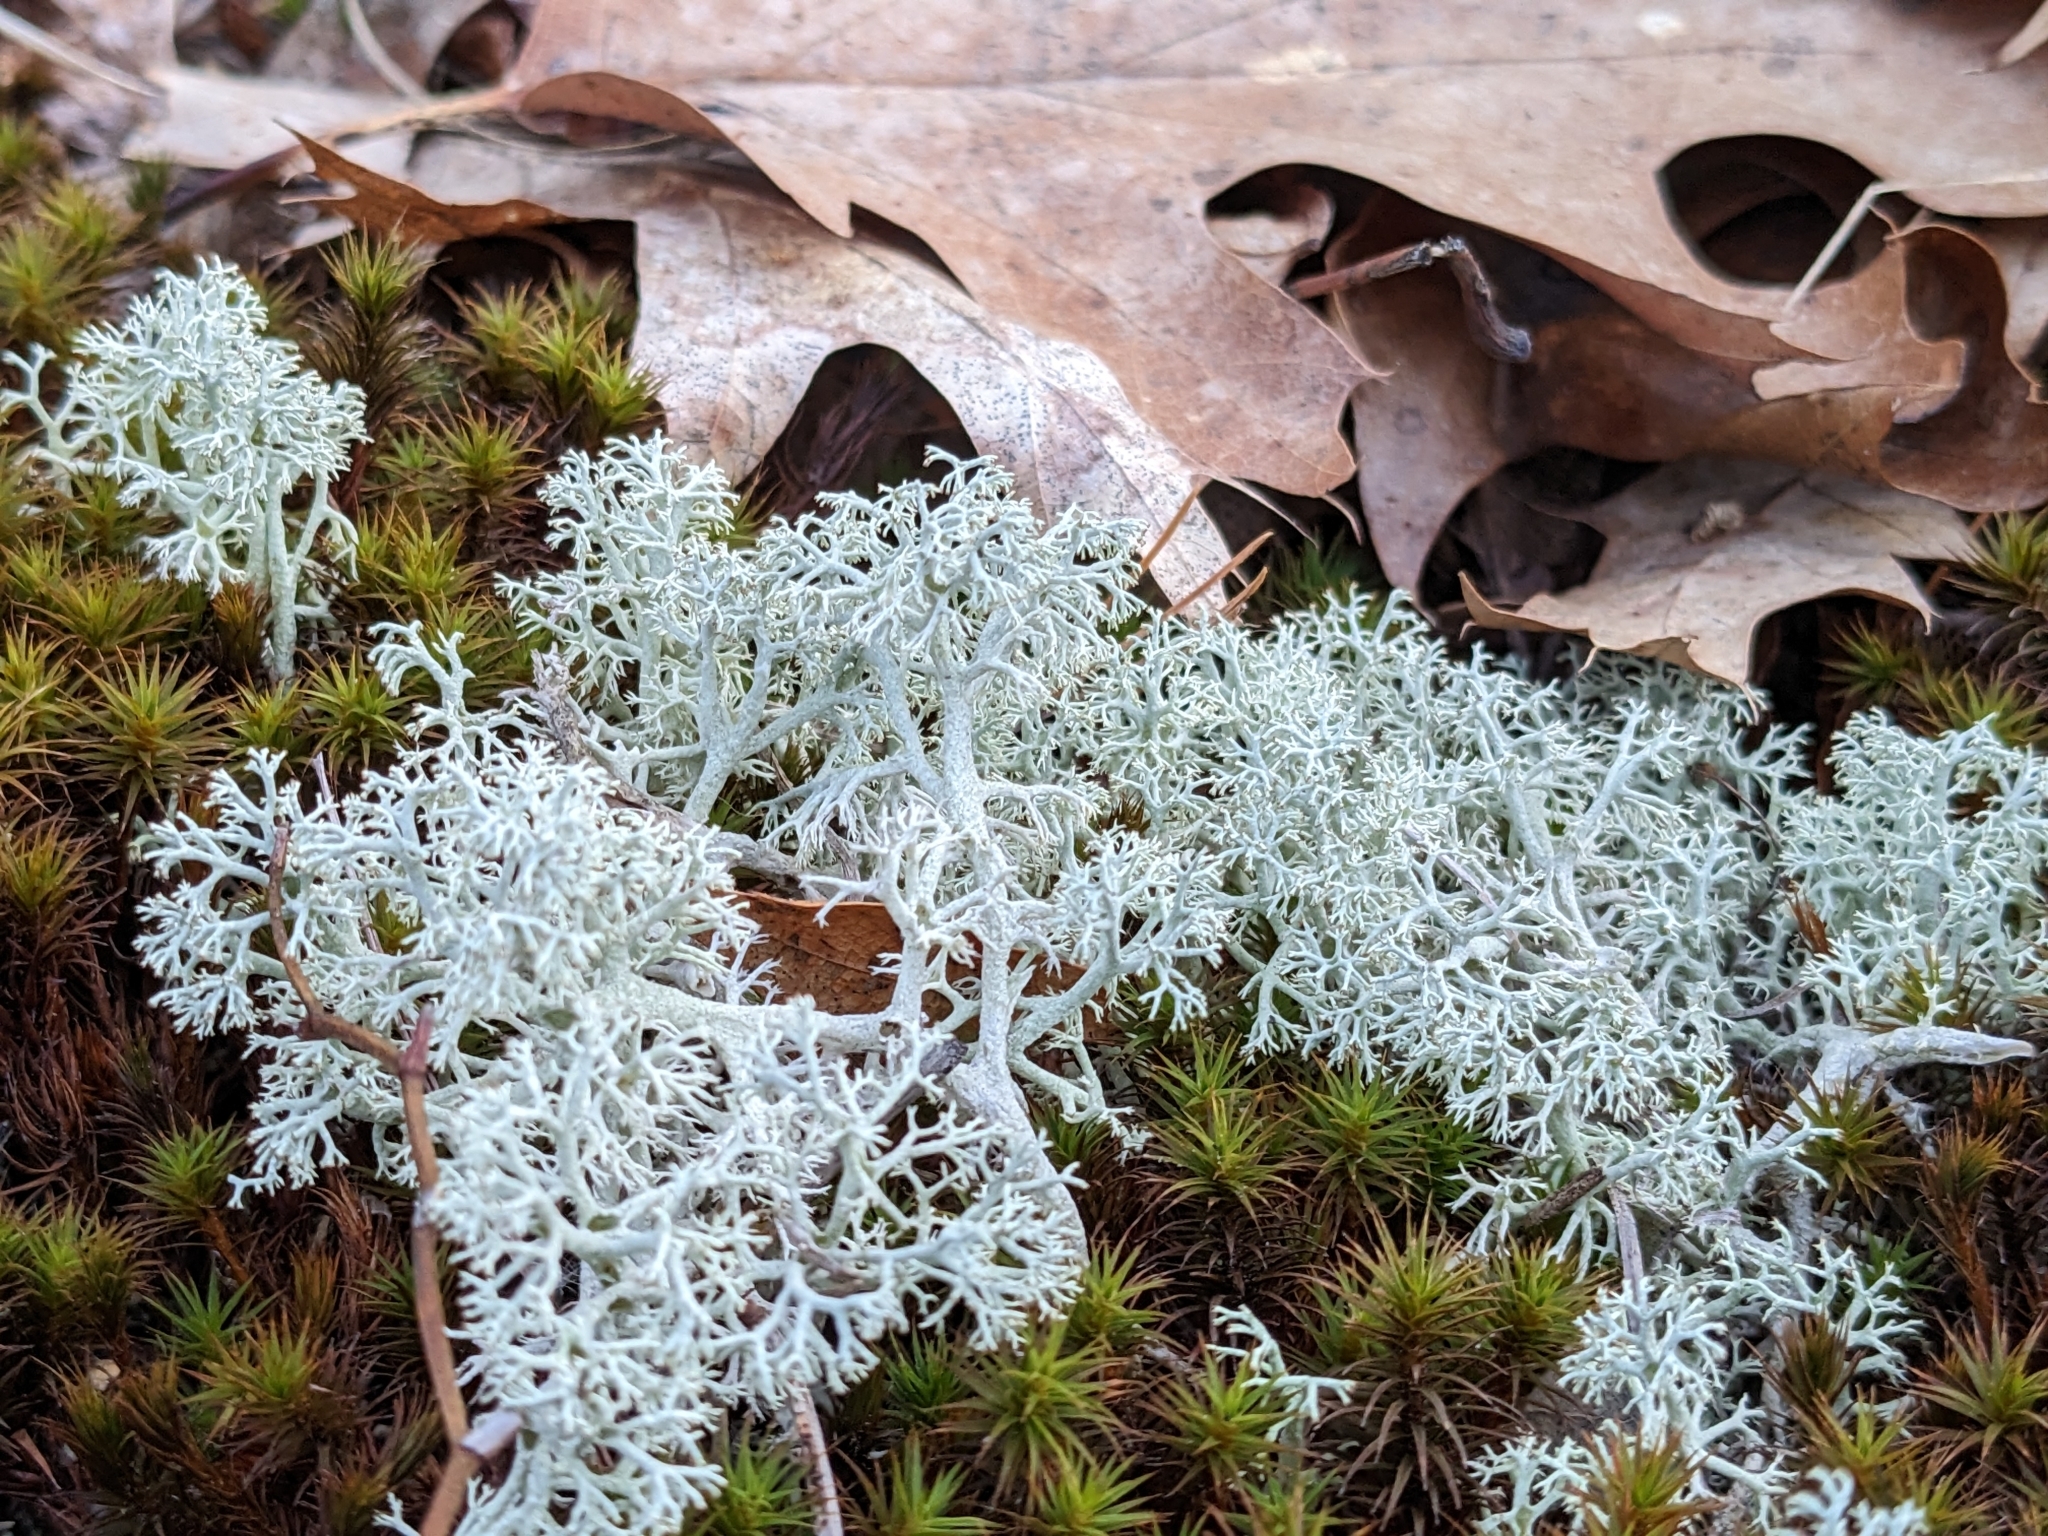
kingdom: Fungi
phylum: Ascomycota
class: Lecanoromycetes
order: Lecanorales
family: Cladoniaceae
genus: Cladonia
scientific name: Cladonia rangiferina
